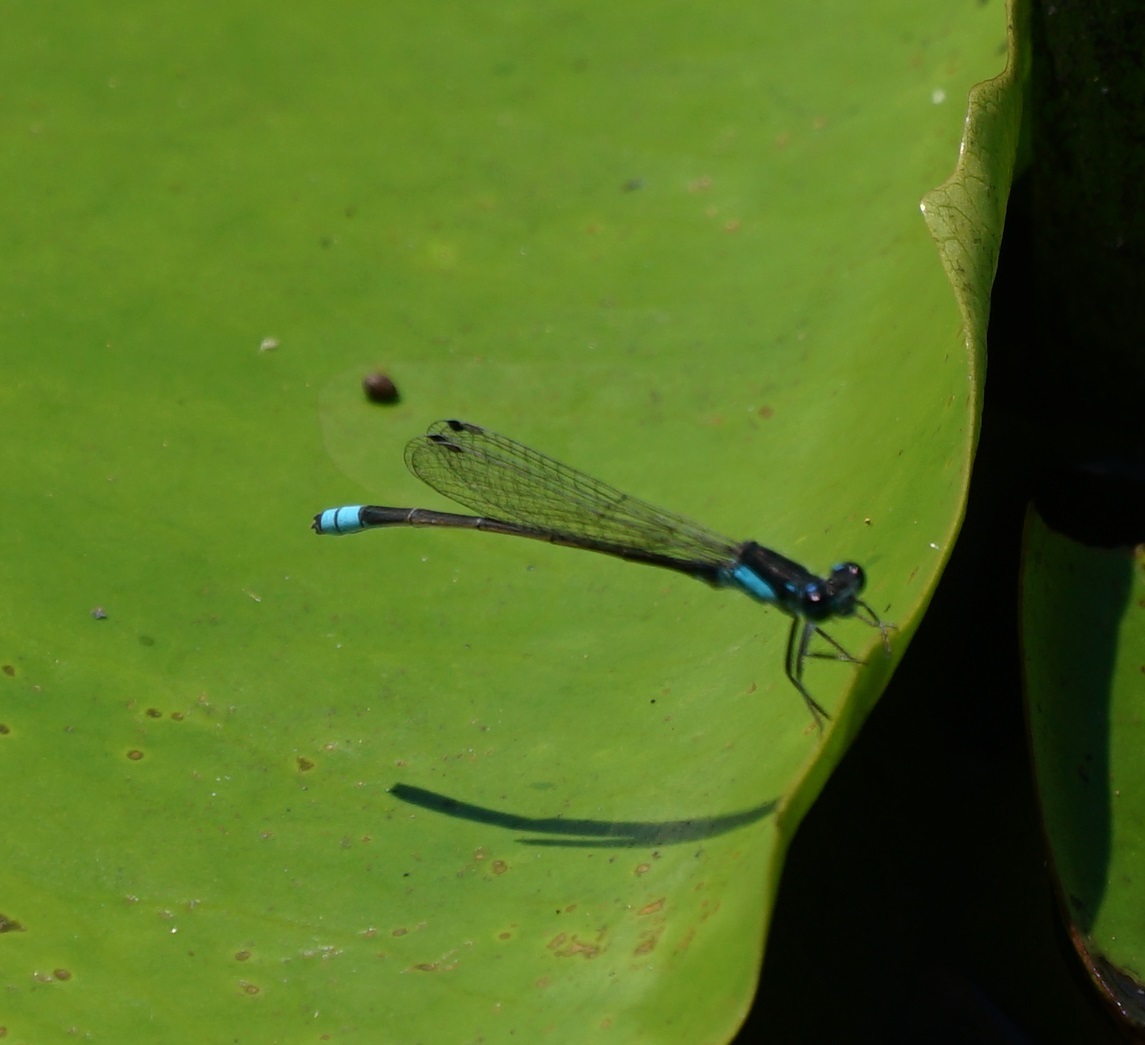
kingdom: Animalia
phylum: Arthropoda
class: Insecta
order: Odonata
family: Coenagrionidae
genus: Ischnura
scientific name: Ischnura heterosticta
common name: Common bluetail
